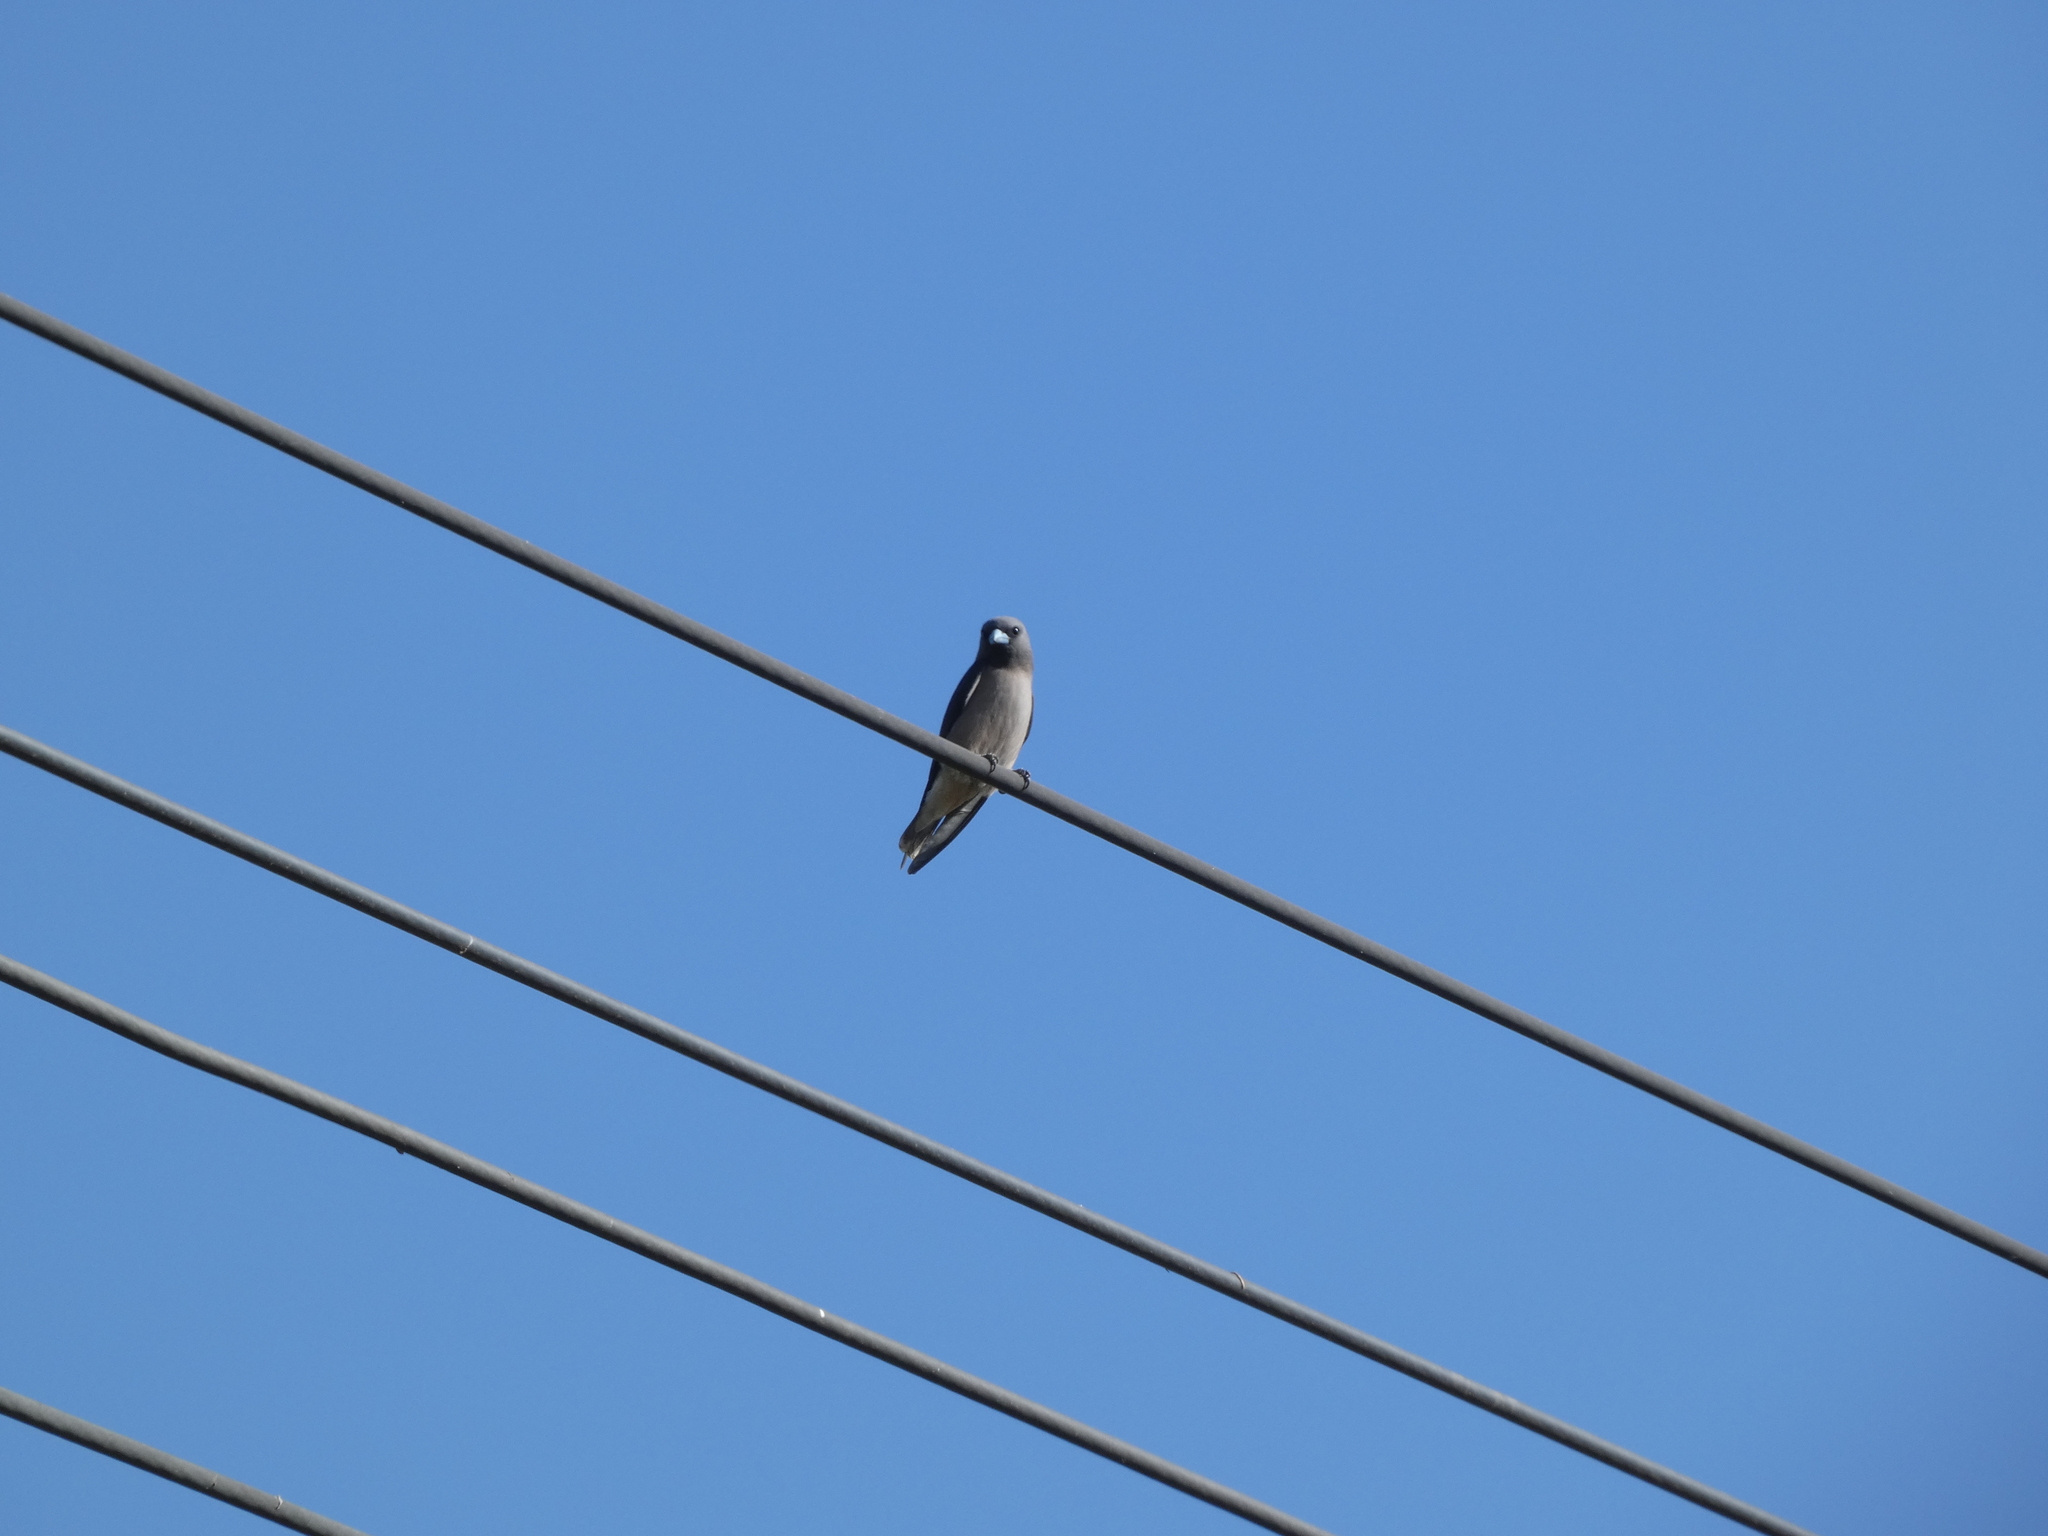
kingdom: Animalia
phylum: Chordata
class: Aves
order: Passeriformes
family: Artamidae
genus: Artamus
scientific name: Artamus fuscus
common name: Ashy woodswallow
